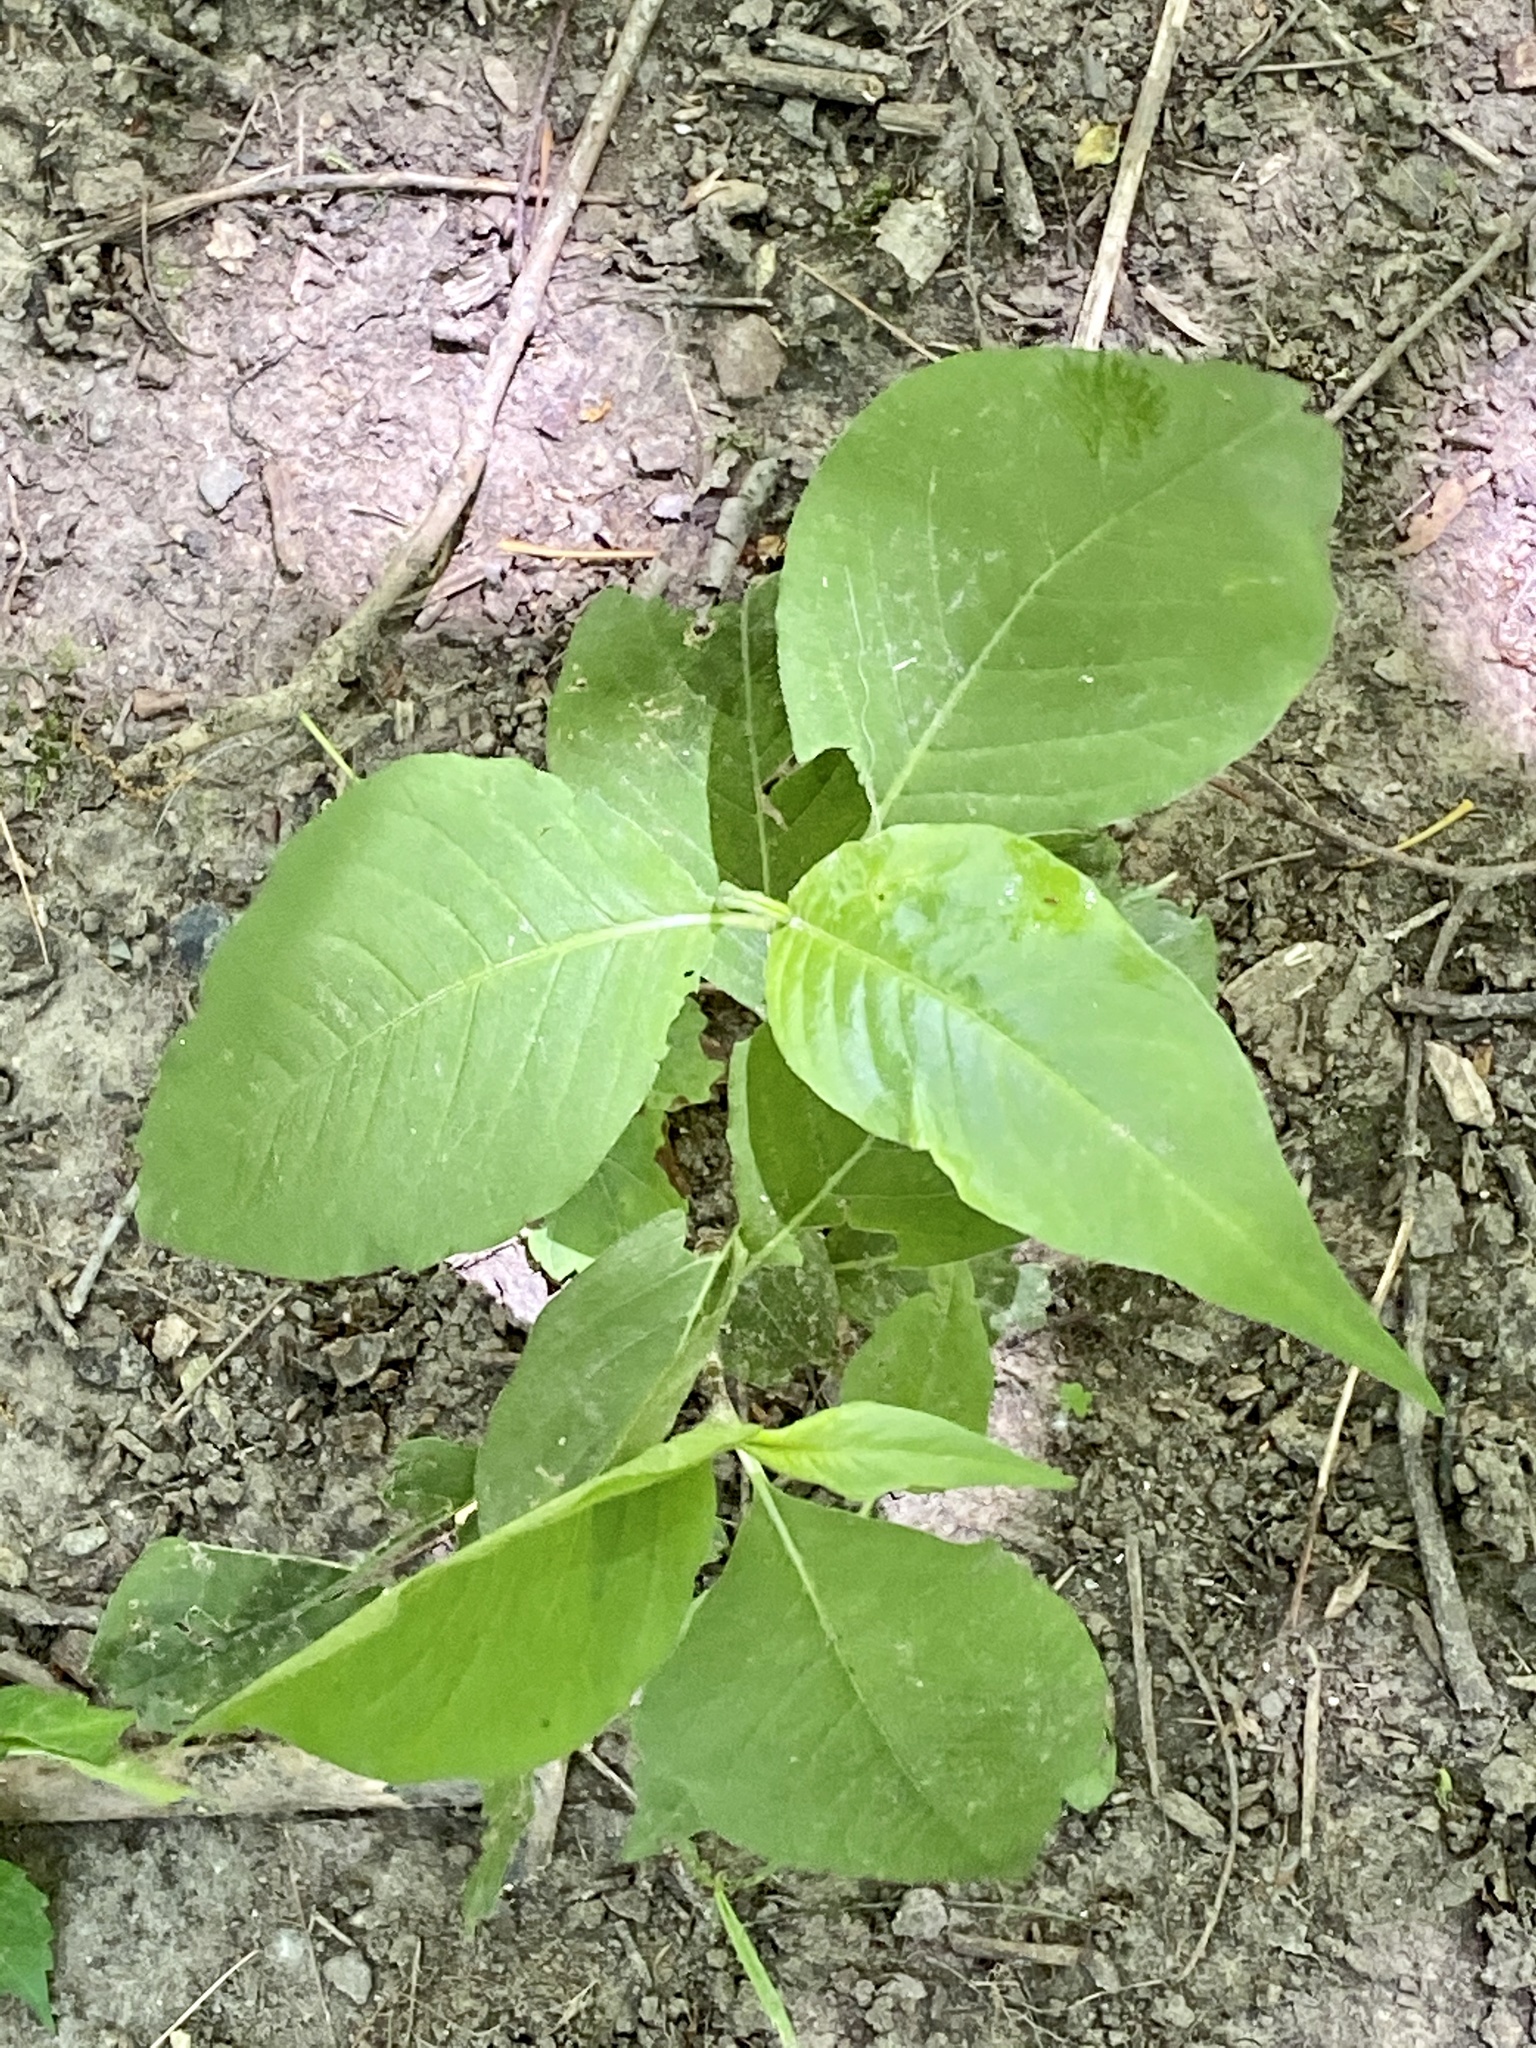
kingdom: Plantae
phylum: Tracheophyta
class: Magnoliopsida
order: Caryophyllales
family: Polygonaceae
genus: Persicaria
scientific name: Persicaria virginiana
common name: Jumpseed
